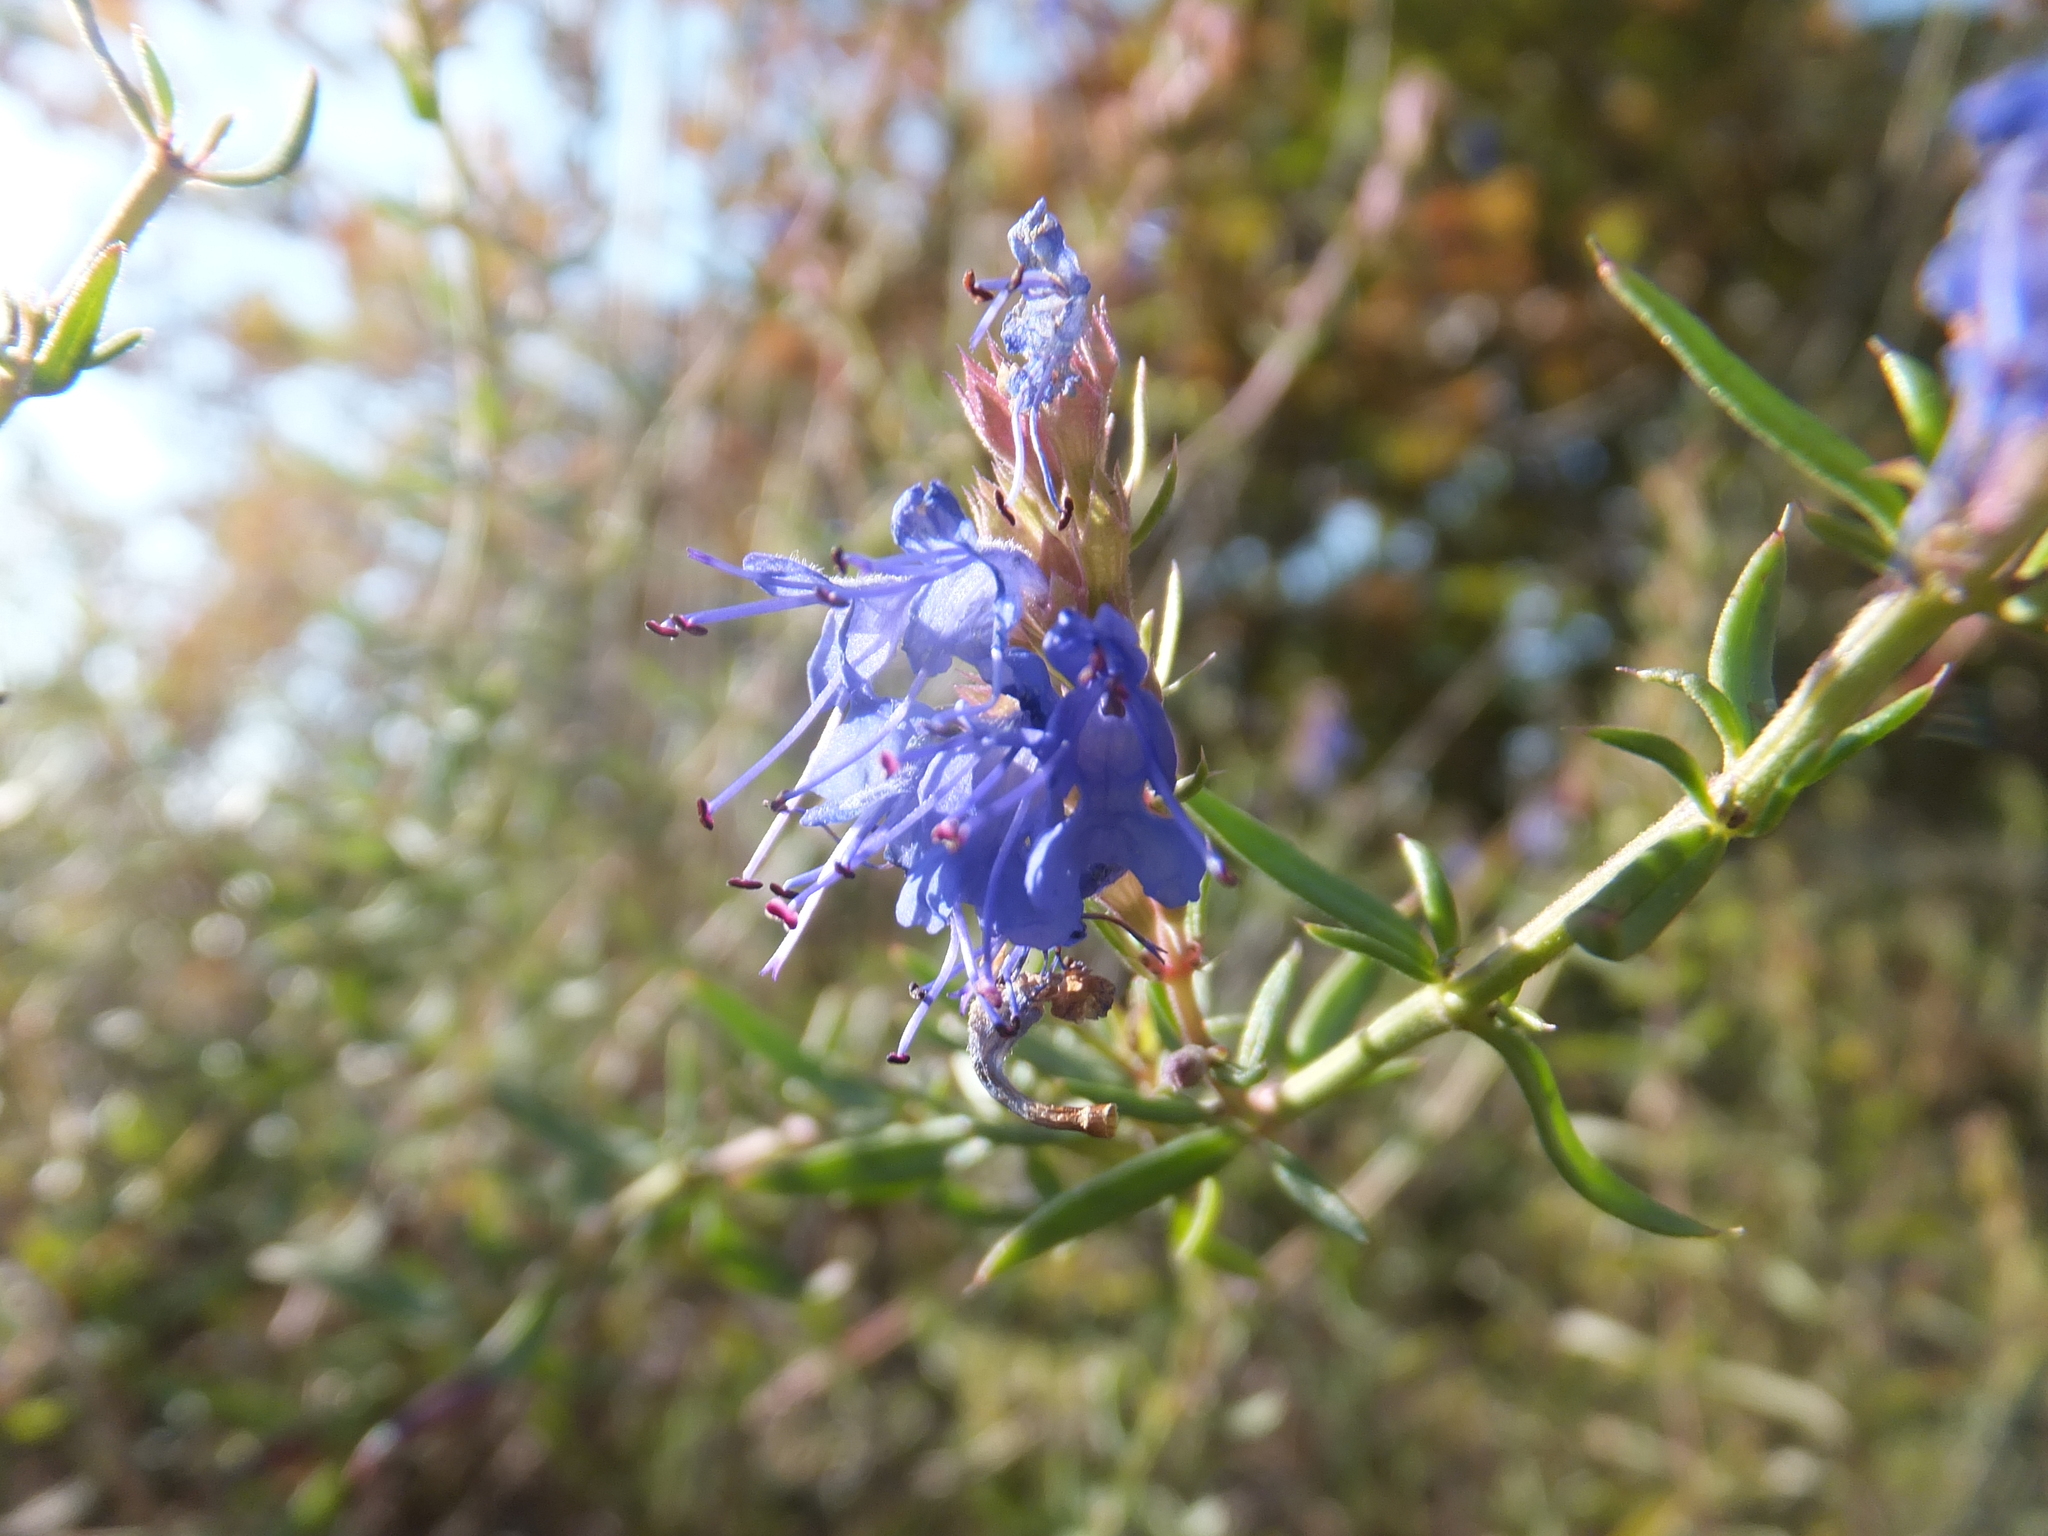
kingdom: Plantae
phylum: Tracheophyta
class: Magnoliopsida
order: Lamiales
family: Lamiaceae
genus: Hyssopus
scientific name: Hyssopus officinalis
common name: Hyssop
